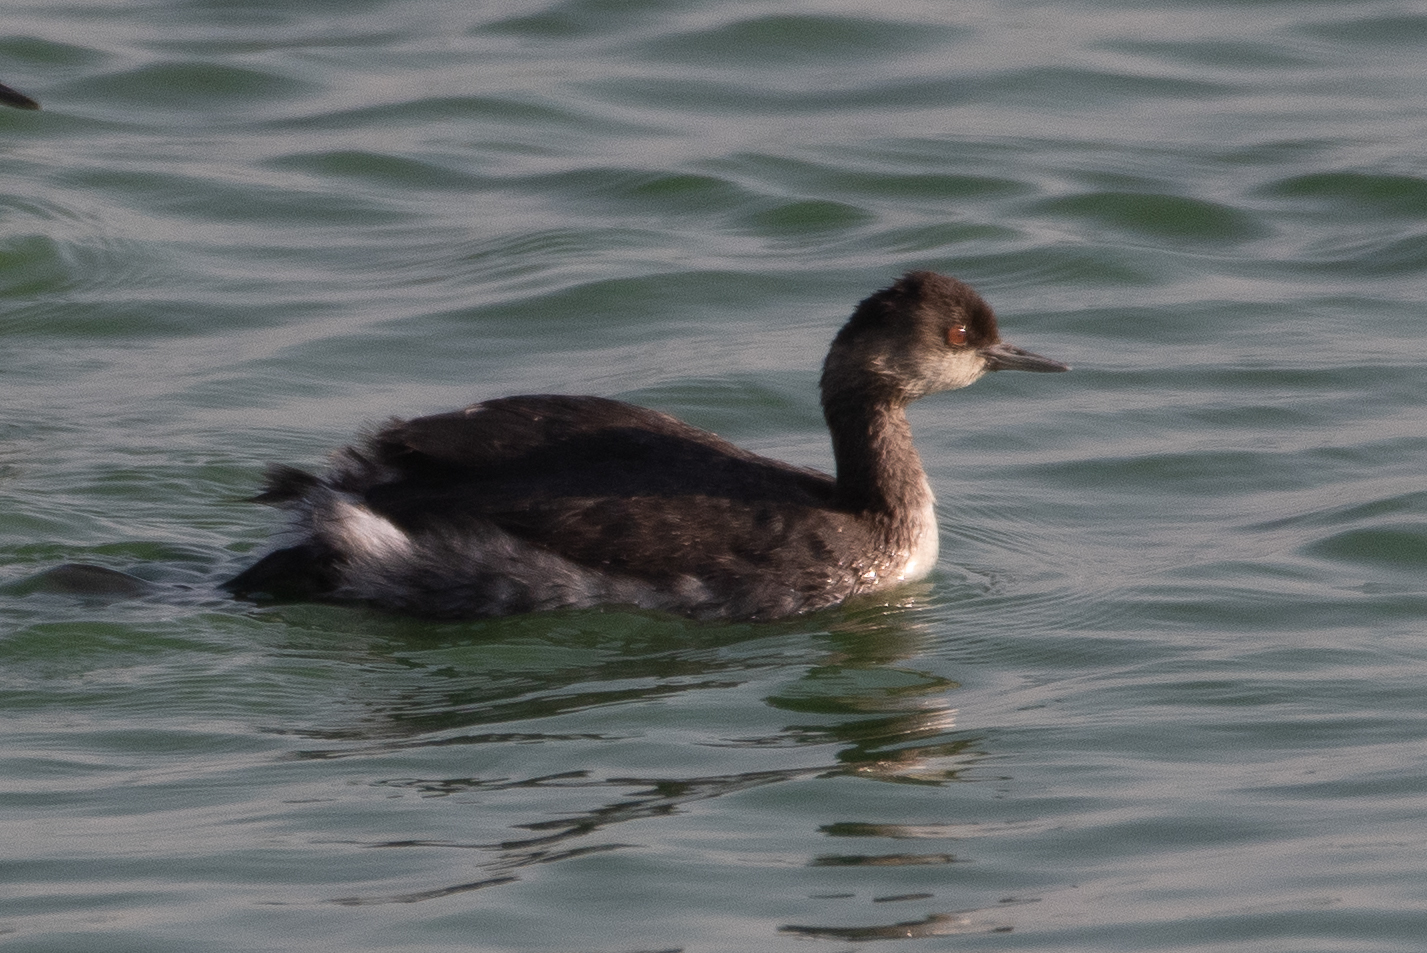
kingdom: Animalia
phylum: Chordata
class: Aves
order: Podicipediformes
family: Podicipedidae
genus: Podiceps
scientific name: Podiceps nigricollis
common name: Black-necked grebe
